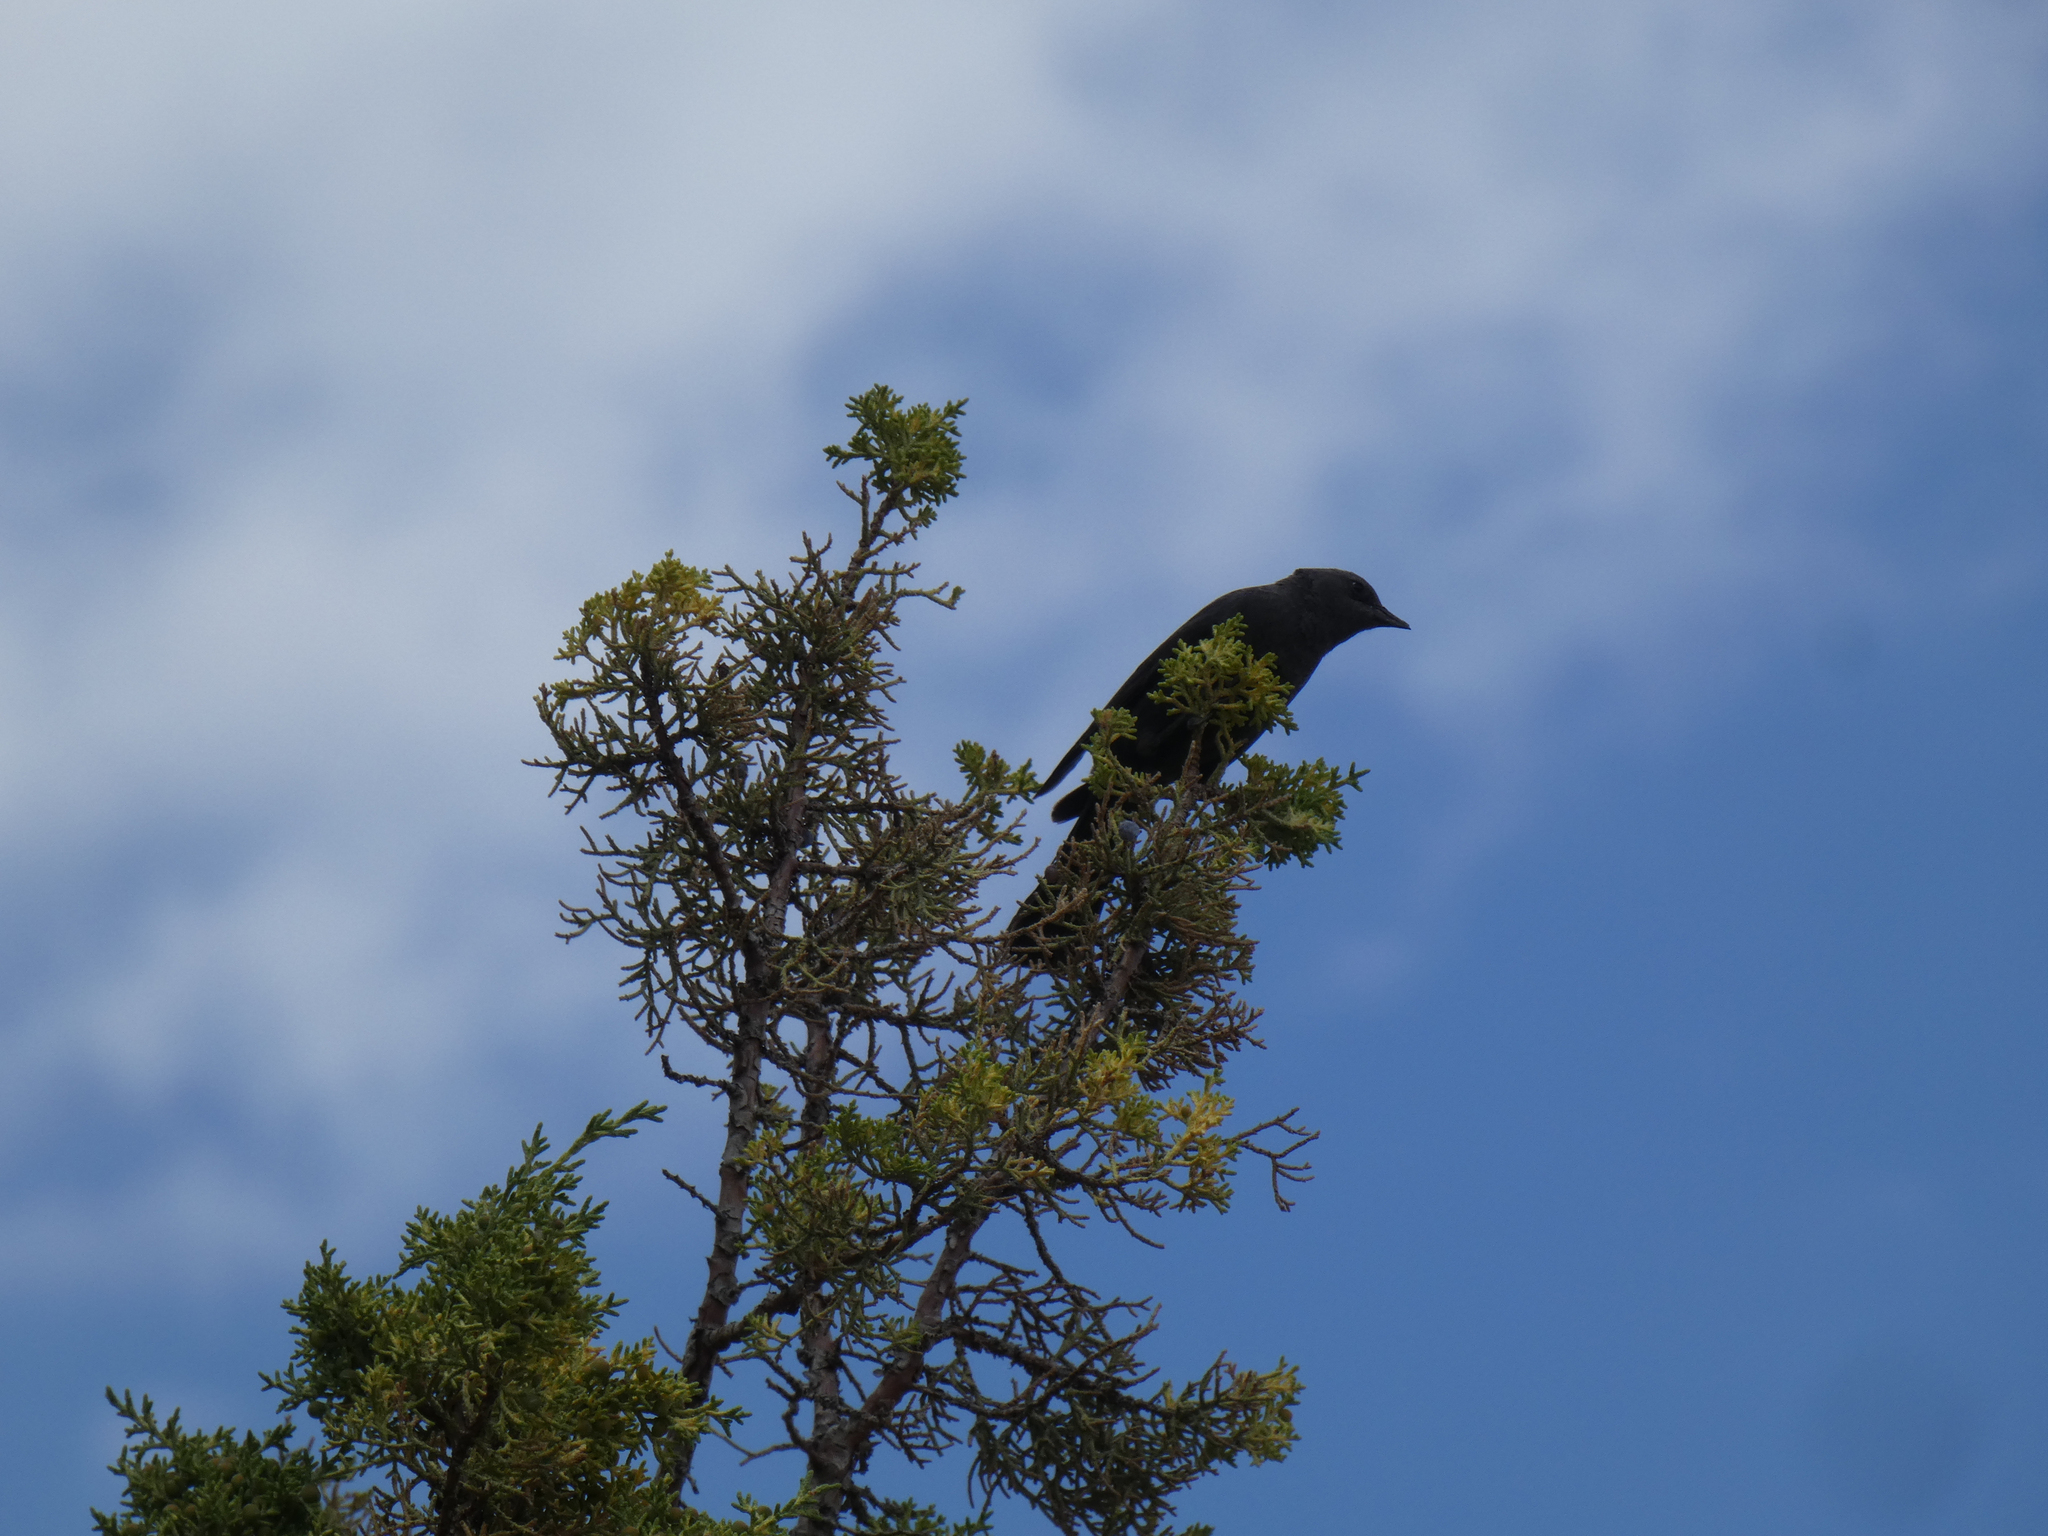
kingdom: Animalia
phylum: Chordata
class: Aves
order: Passeriformes
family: Icteridae
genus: Euphagus
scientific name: Euphagus cyanocephalus
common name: Brewer's blackbird
